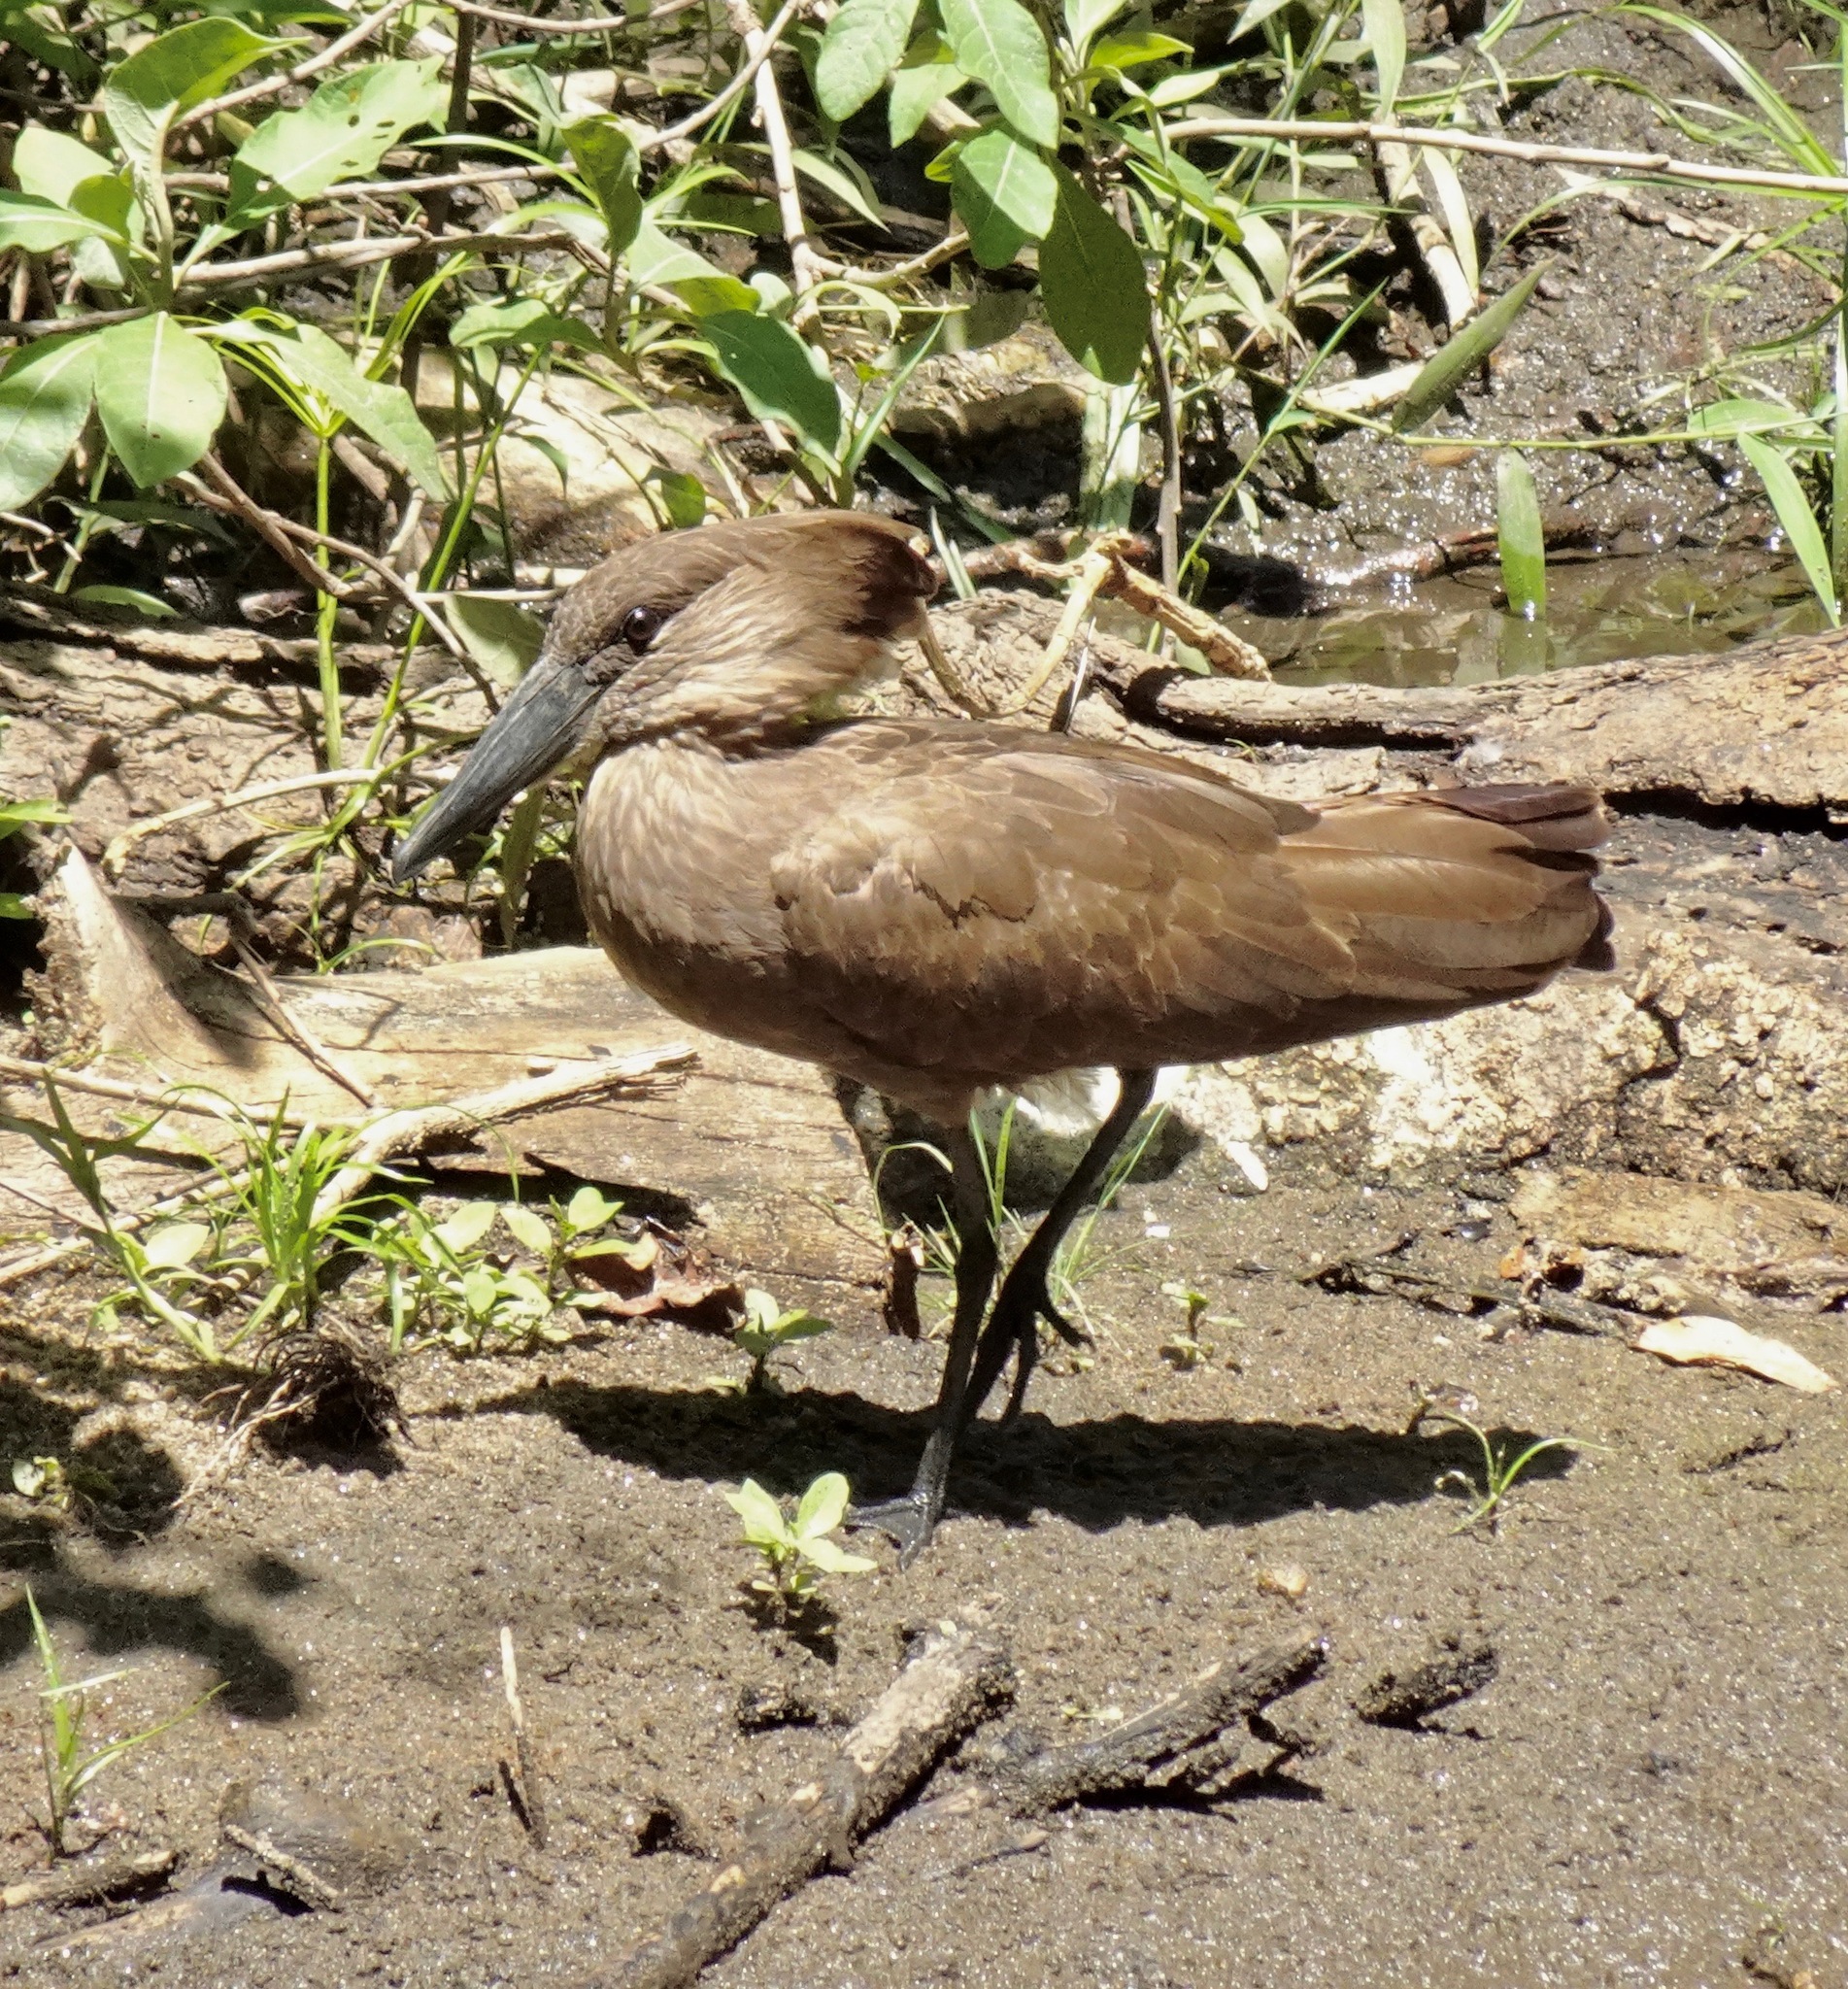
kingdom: Animalia
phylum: Chordata
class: Aves
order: Pelecaniformes
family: Scopidae
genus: Scopus
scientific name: Scopus umbretta
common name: Hamerkop
